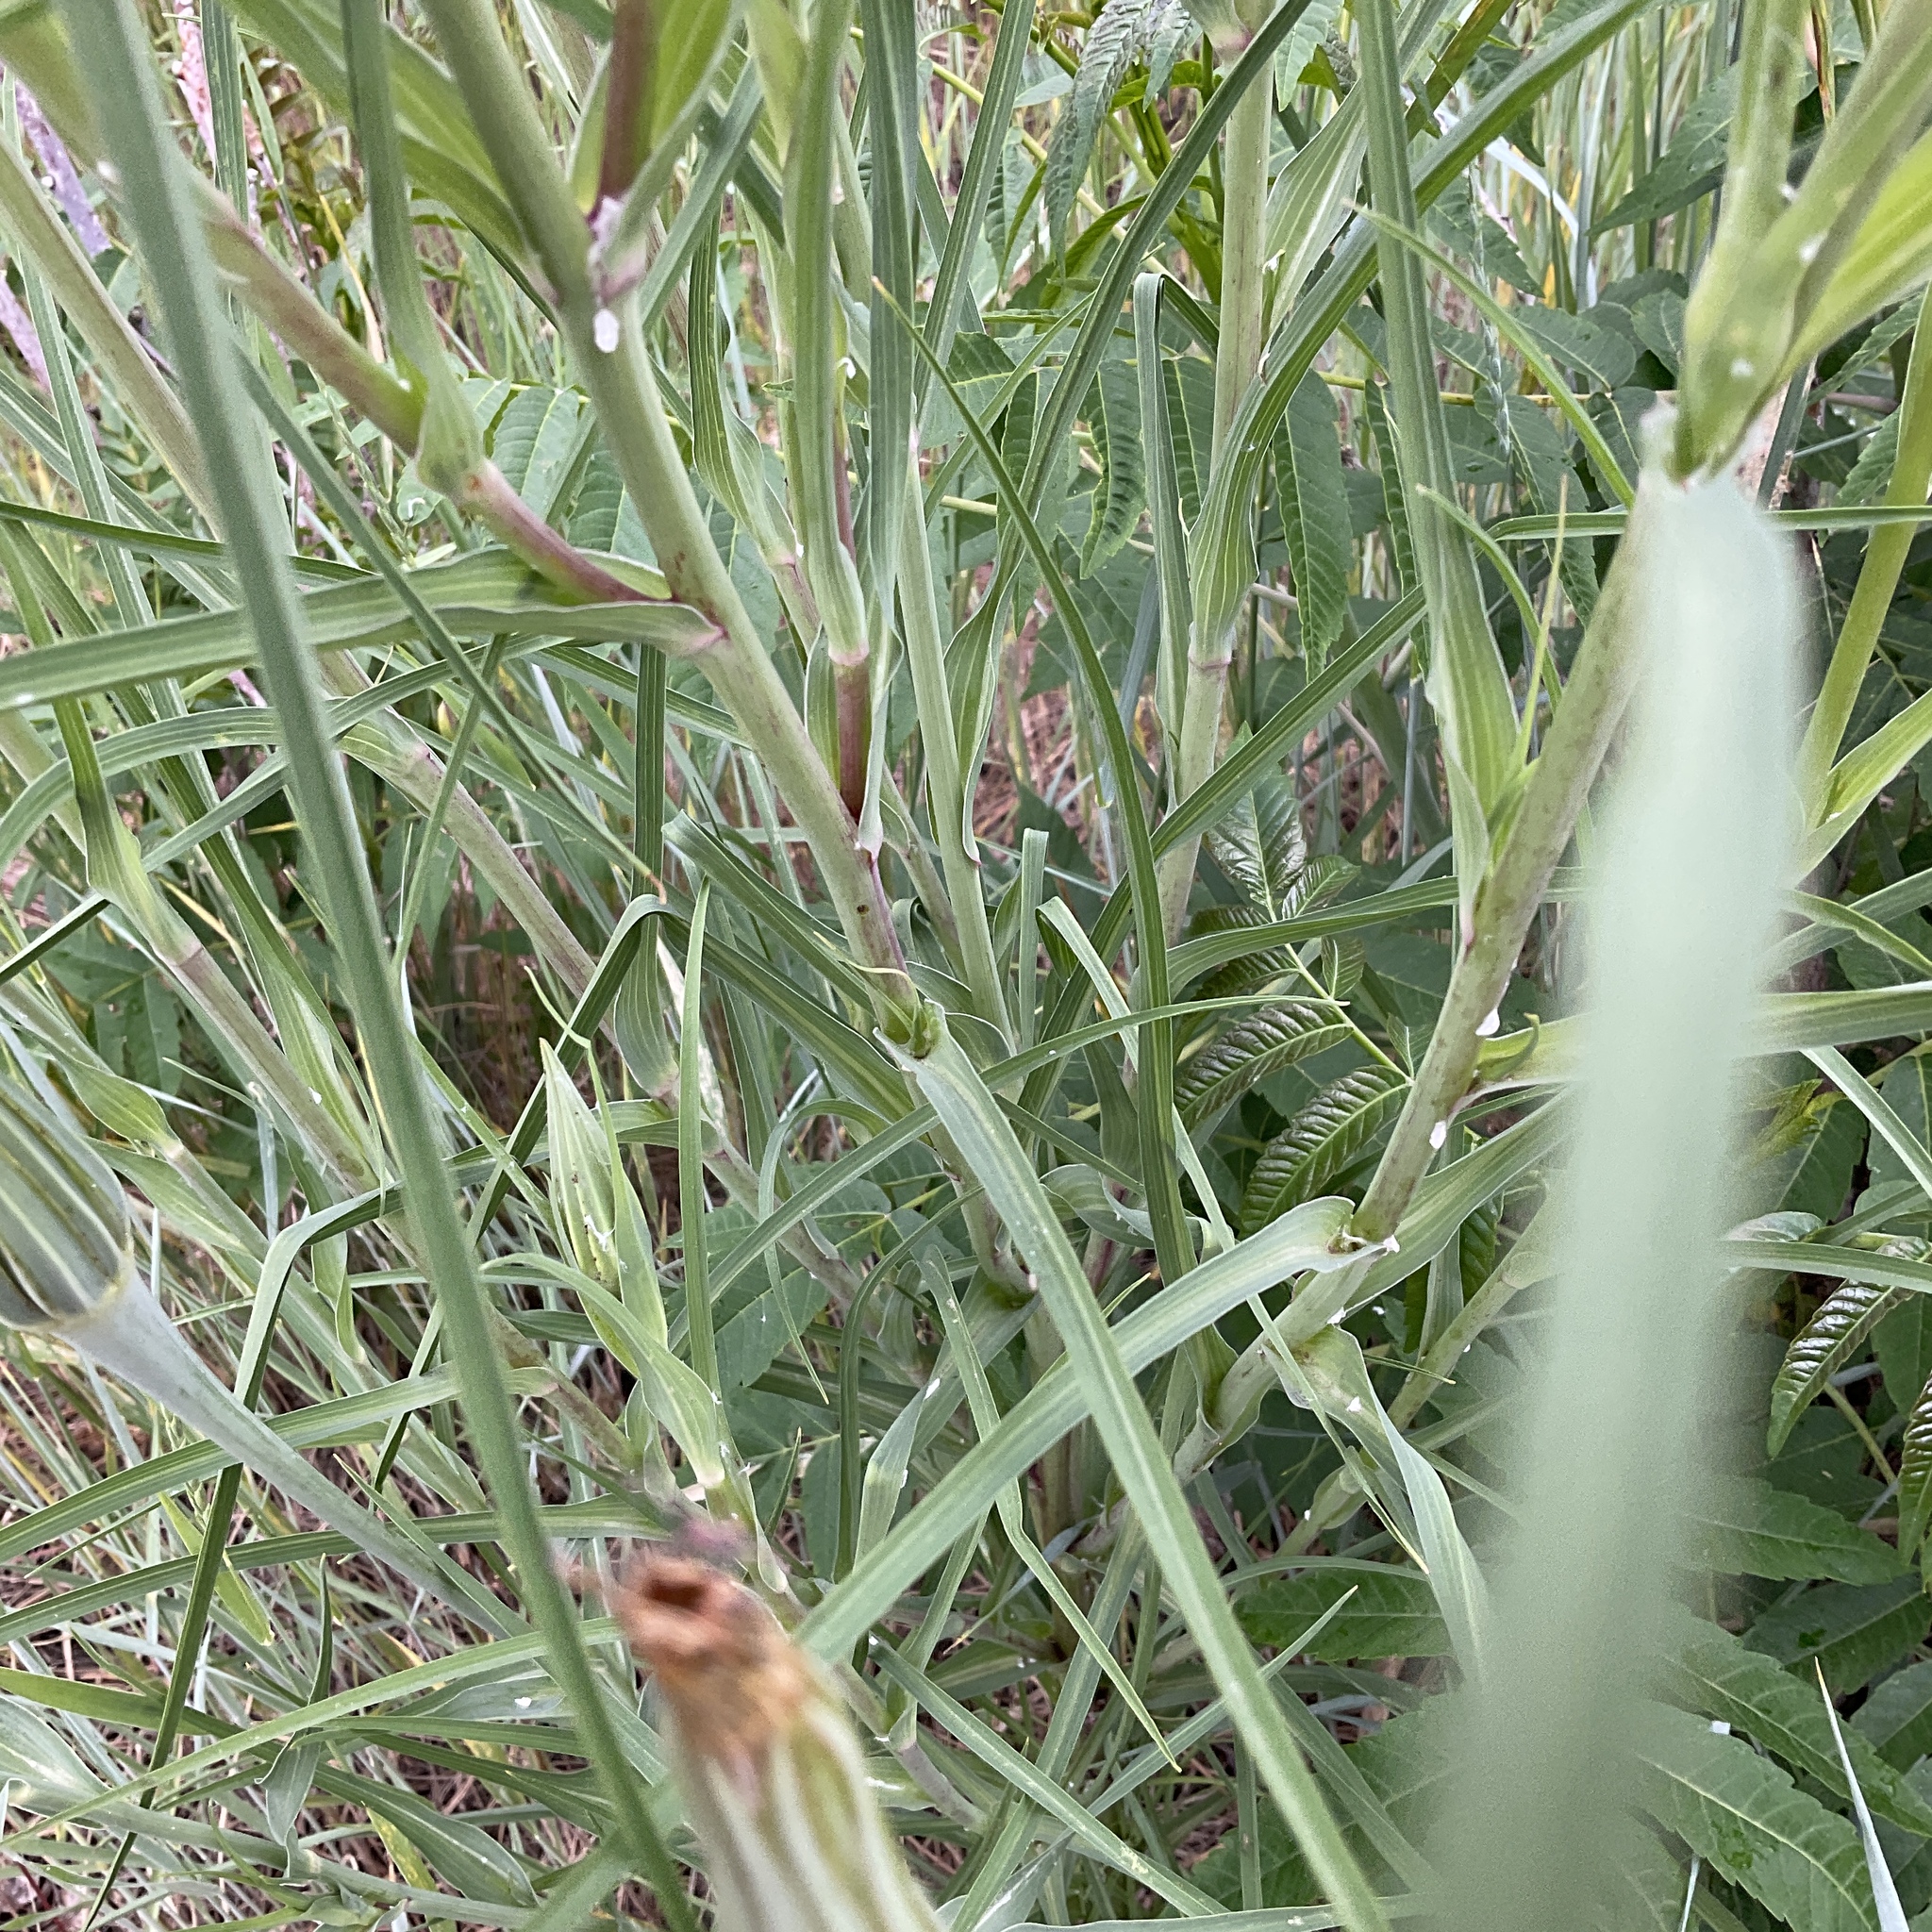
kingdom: Plantae
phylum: Tracheophyta
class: Magnoliopsida
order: Asterales
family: Asteraceae
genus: Tragopogon
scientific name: Tragopogon dubius
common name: Yellow salsify
